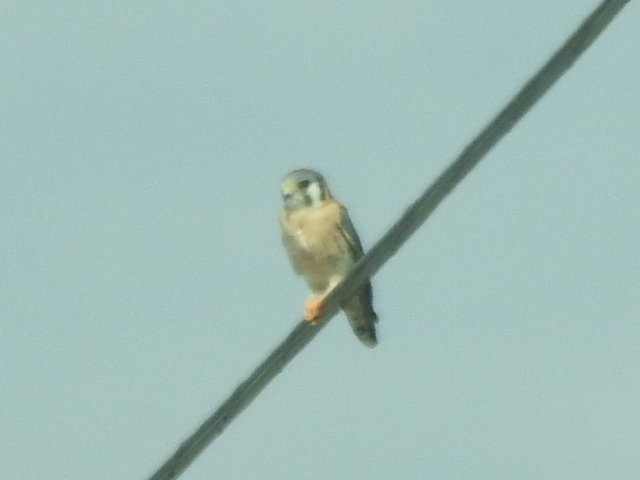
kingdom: Animalia
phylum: Chordata
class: Aves
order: Falconiformes
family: Falconidae
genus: Falco
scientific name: Falco sparverius
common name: American kestrel
